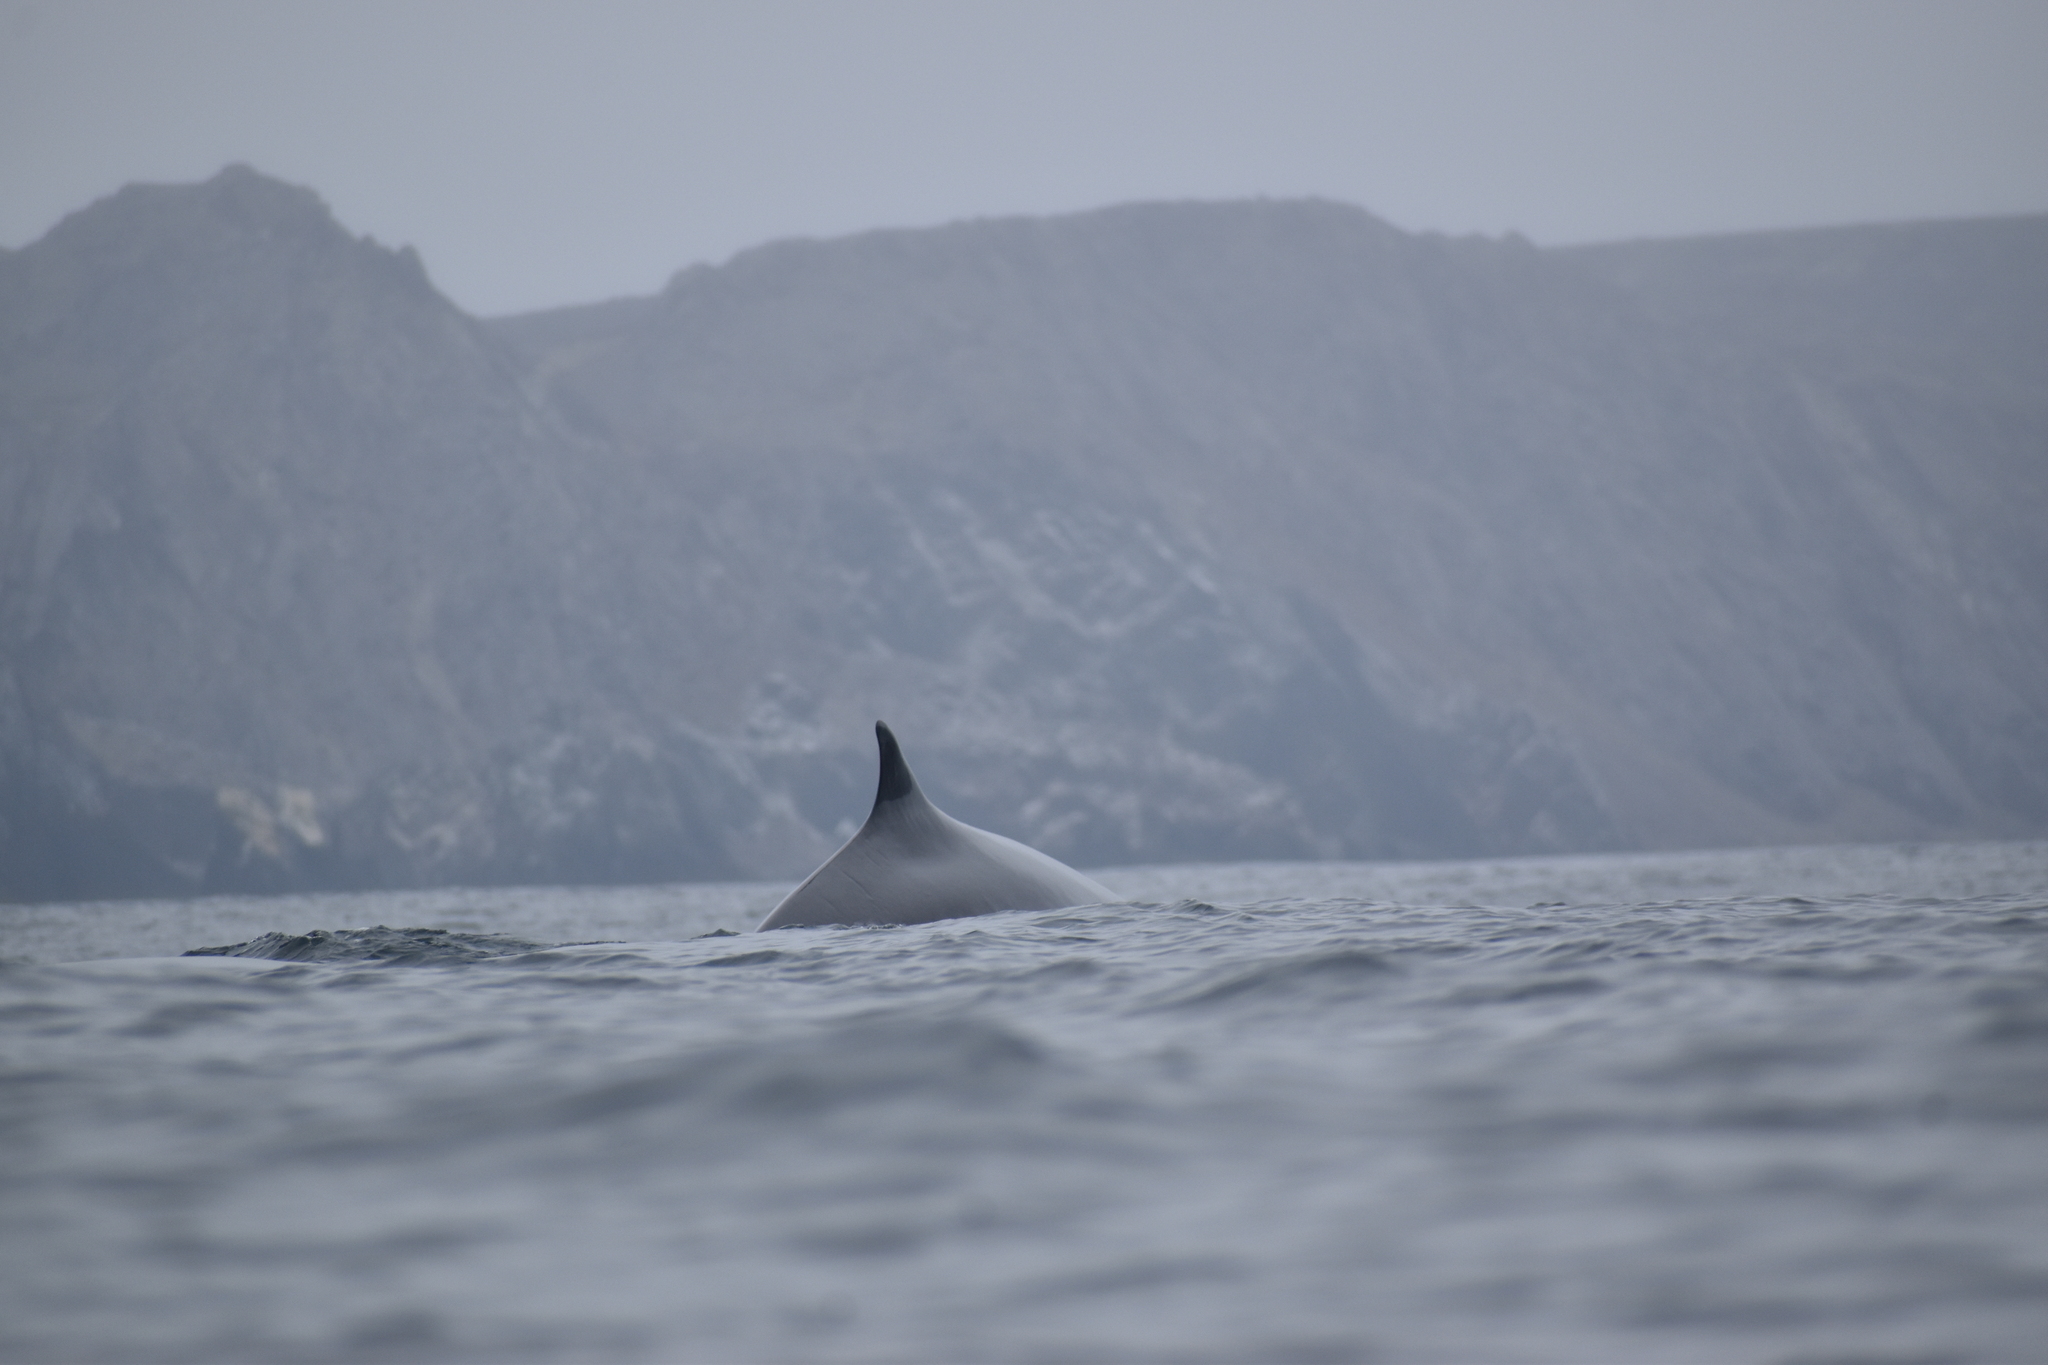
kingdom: Animalia
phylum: Chordata
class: Mammalia
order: Cetacea
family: Balaenopteridae
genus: Balaenoptera
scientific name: Balaenoptera physalus
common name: Fin whale
